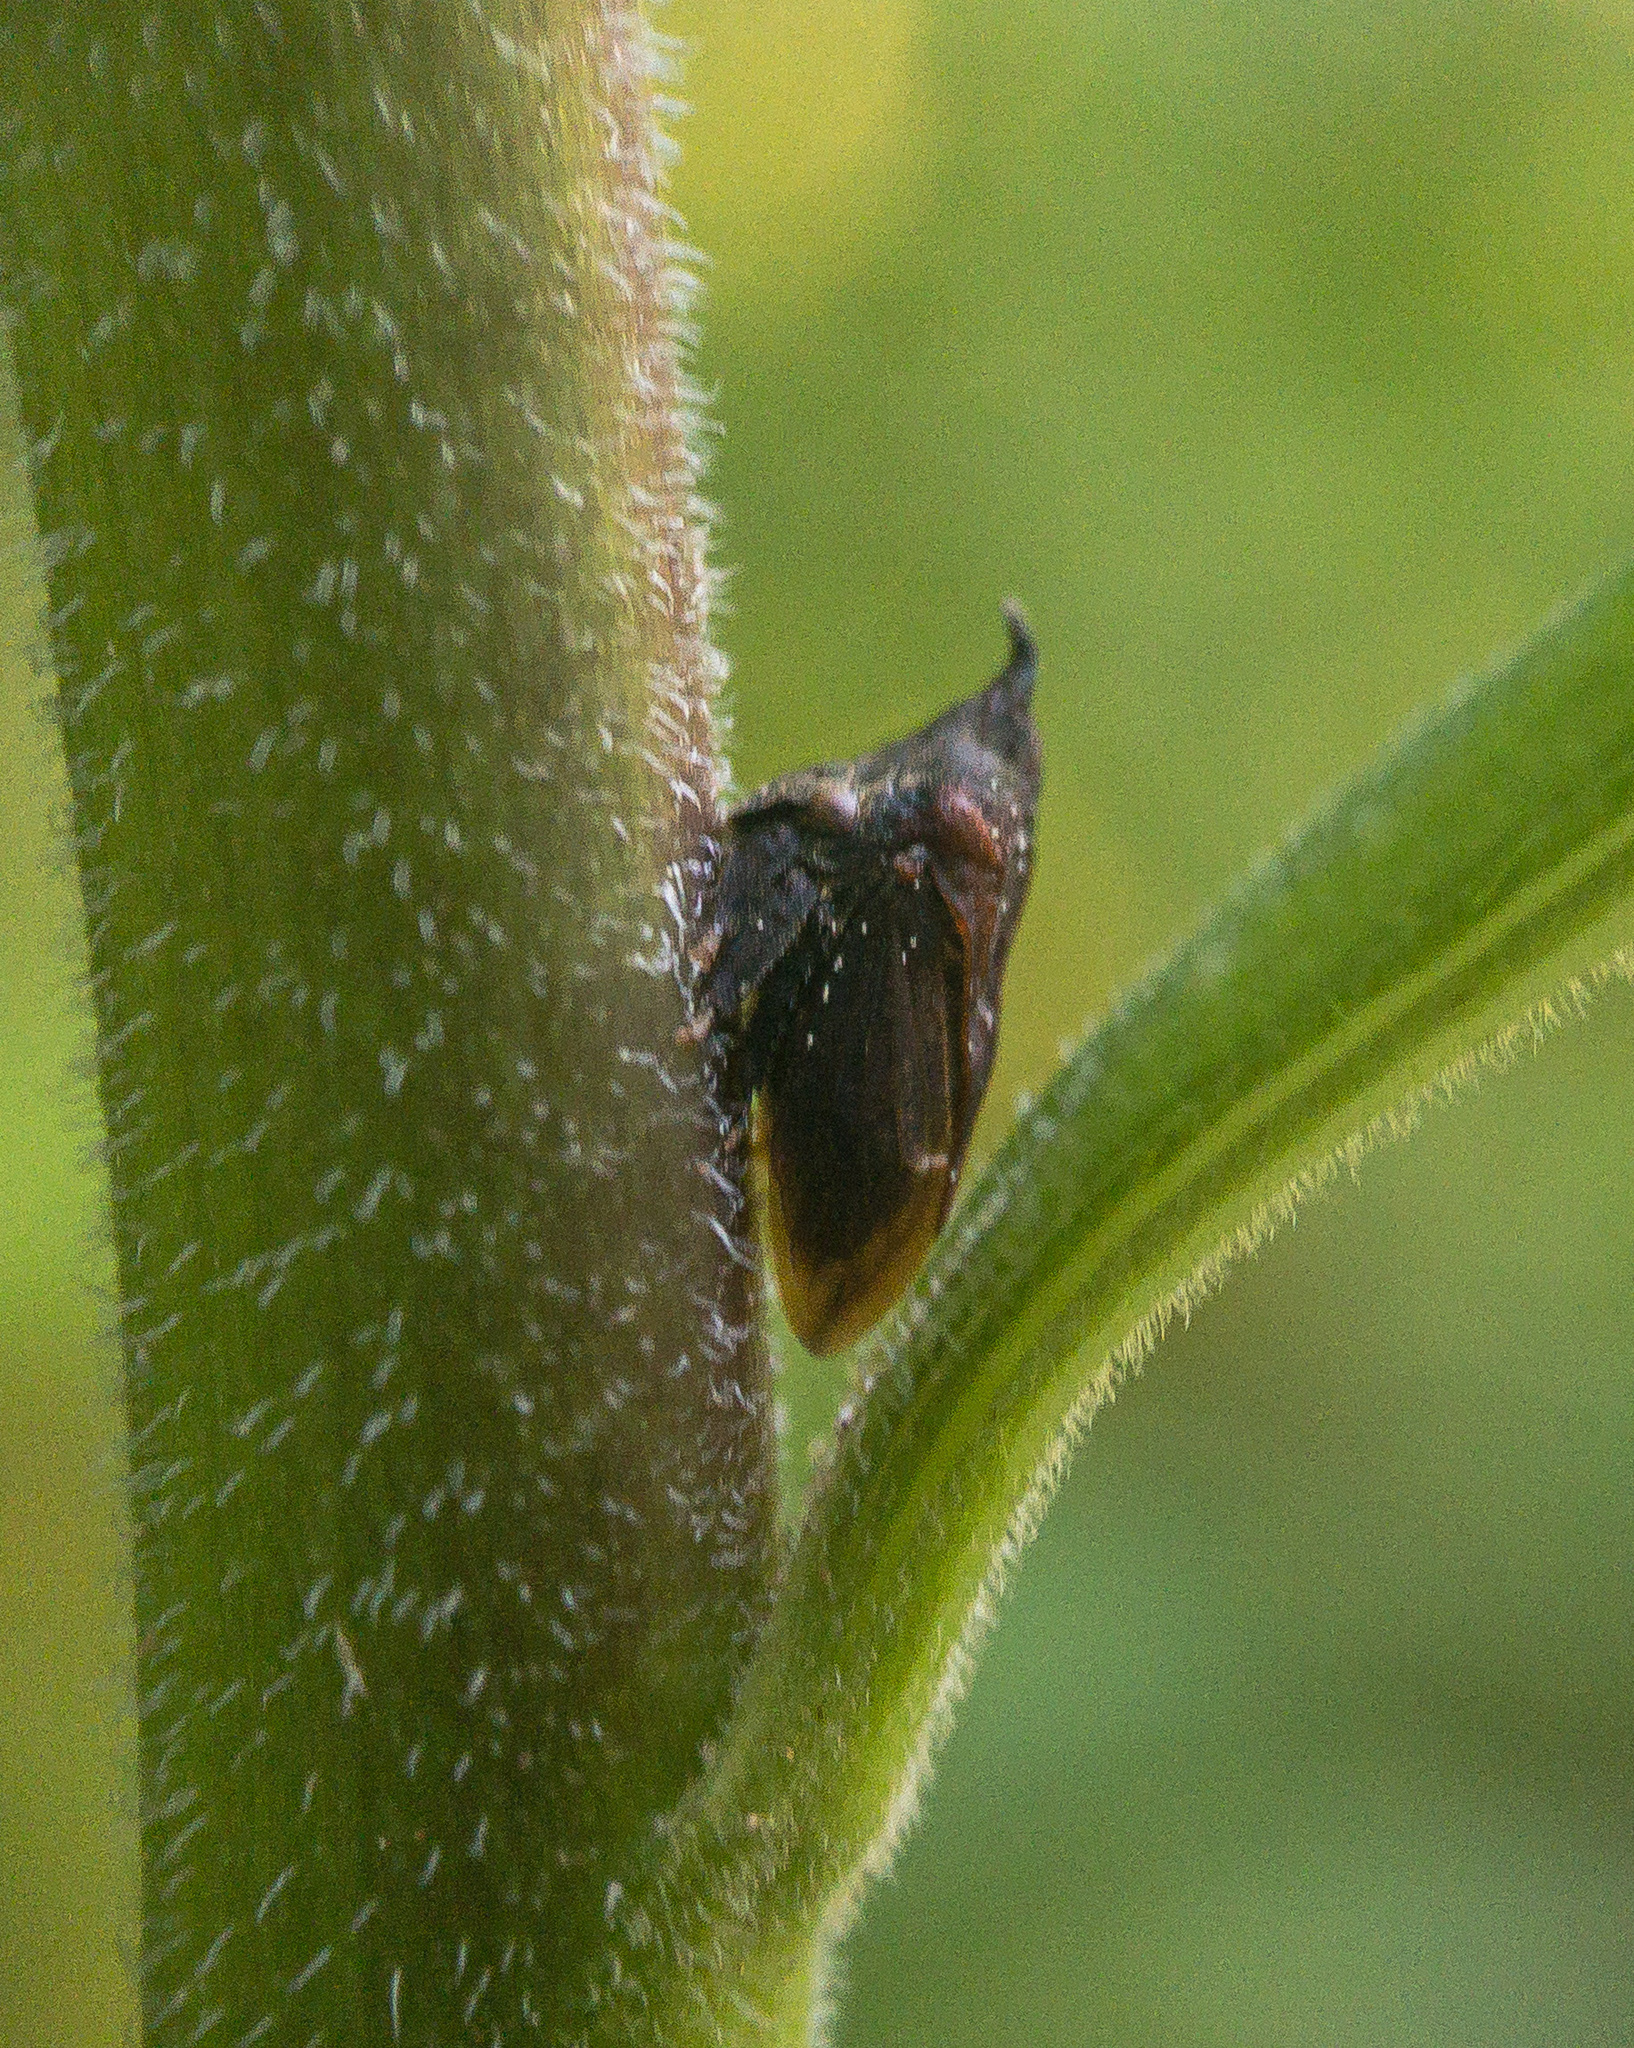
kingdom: Animalia
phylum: Arthropoda
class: Insecta
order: Hemiptera
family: Membracidae
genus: Enchenopa
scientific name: Enchenopa latipes
